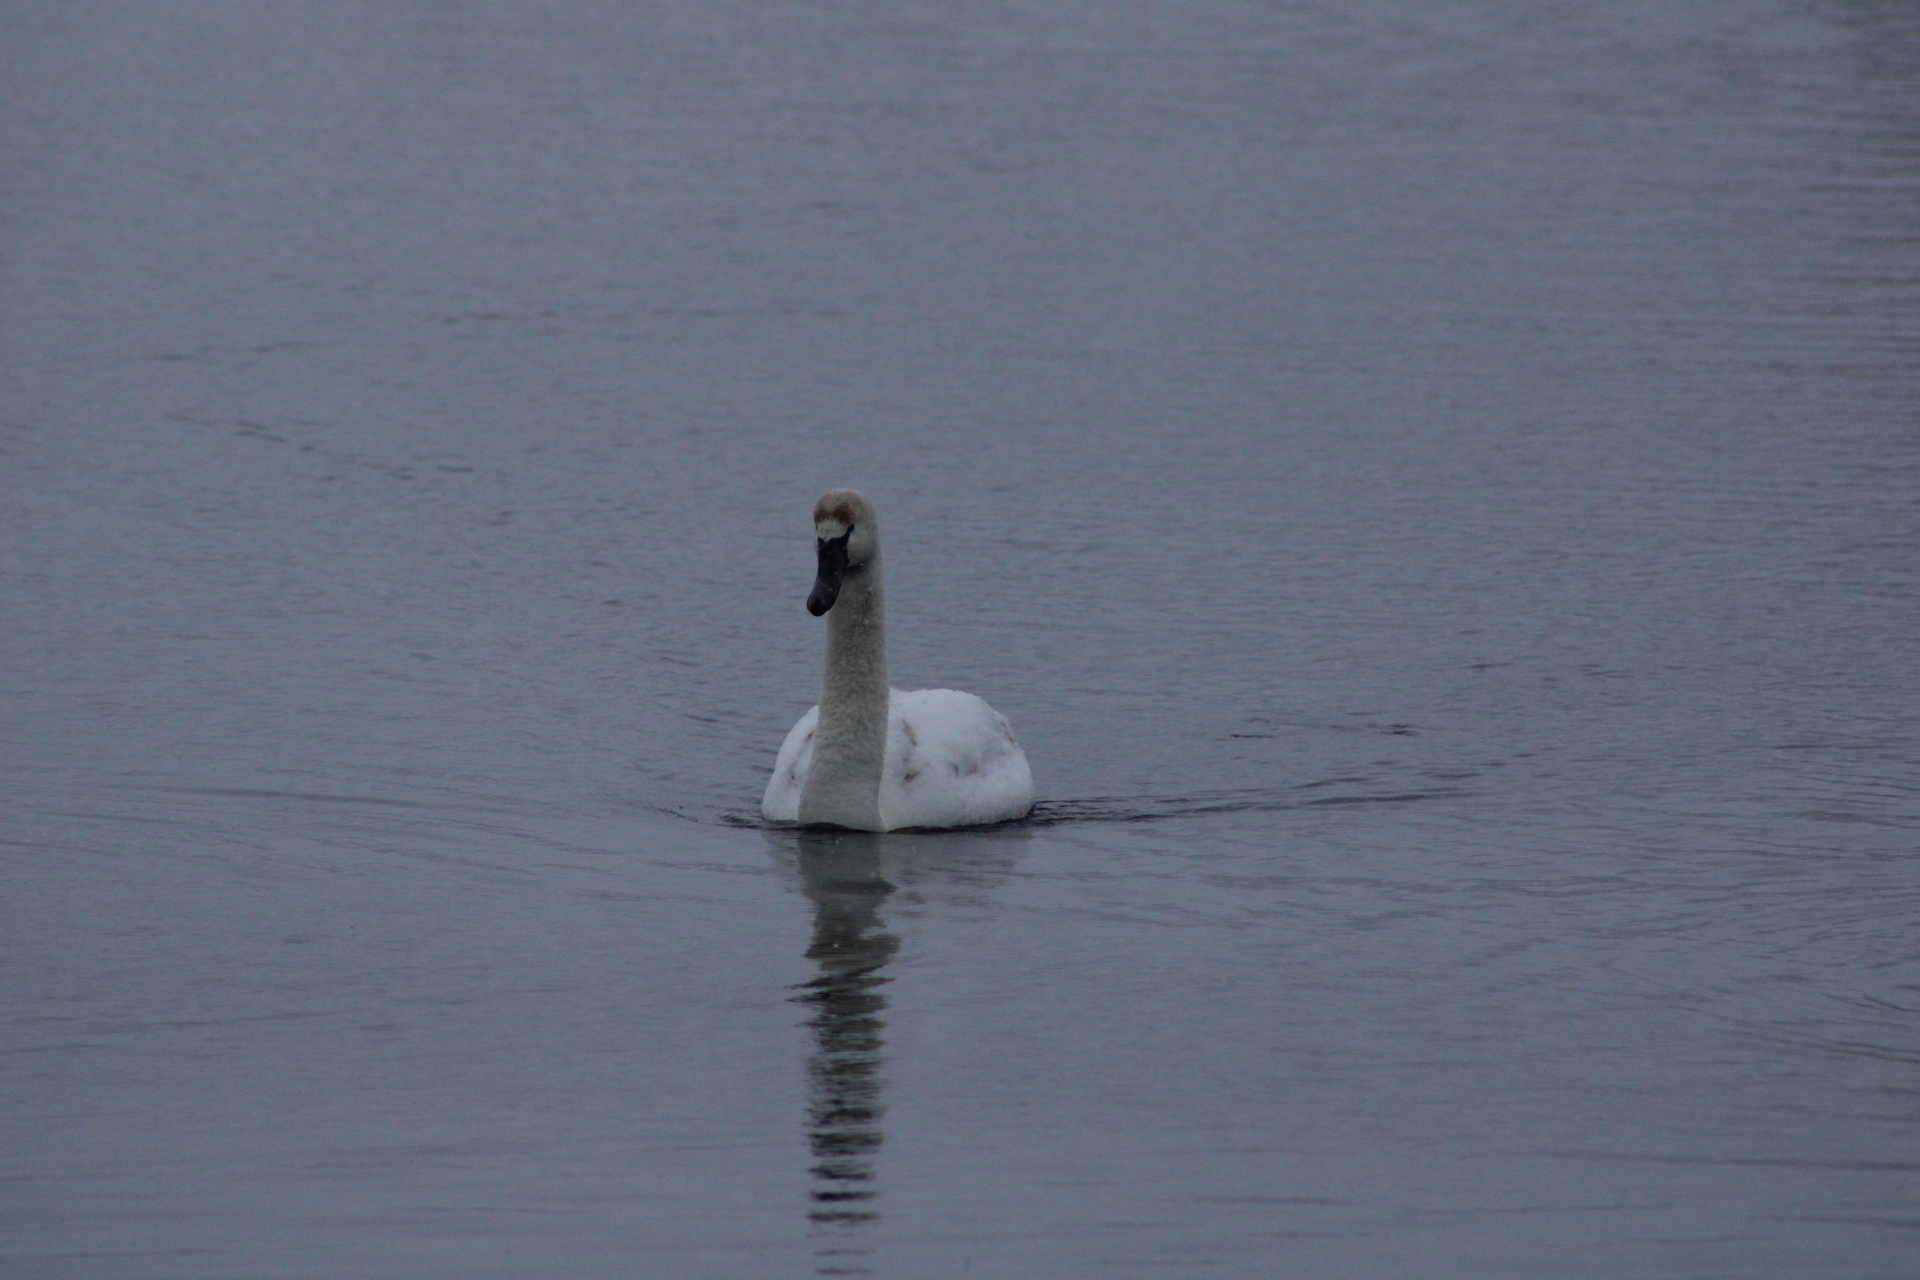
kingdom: Animalia
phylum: Chordata
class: Aves
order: Anseriformes
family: Anatidae
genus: Cygnus
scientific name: Cygnus olor
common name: Mute swan
